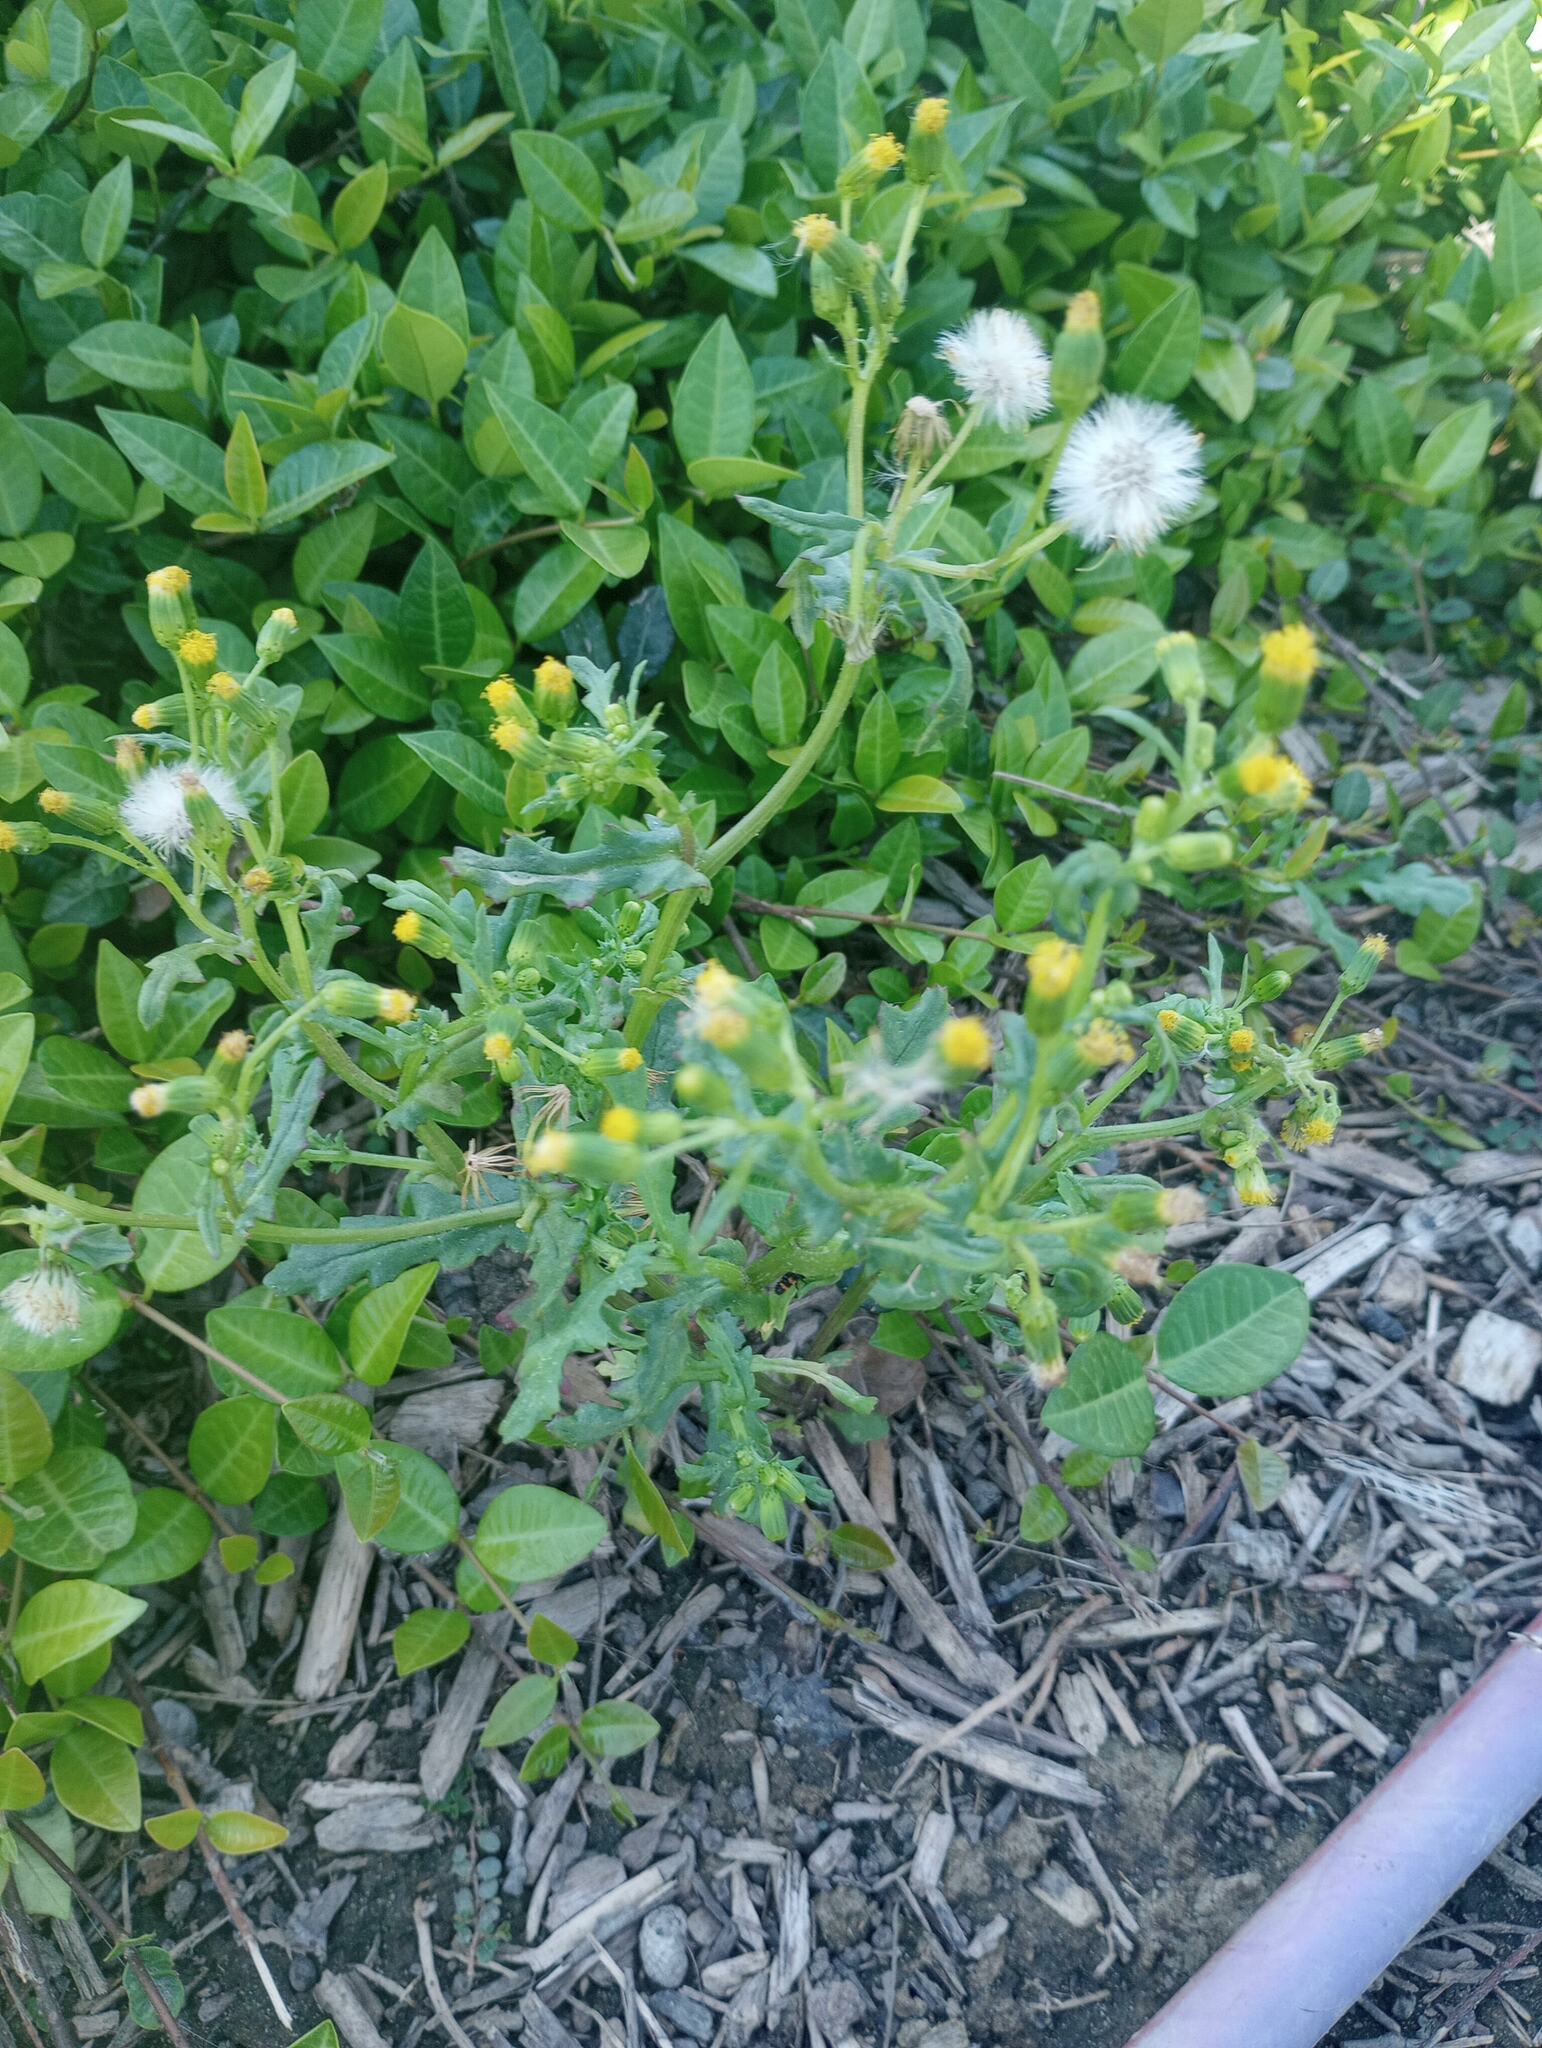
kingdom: Plantae
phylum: Tracheophyta
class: Magnoliopsida
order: Asterales
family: Asteraceae
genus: Senecio
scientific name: Senecio vulgaris
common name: Old-man-in-the-spring
